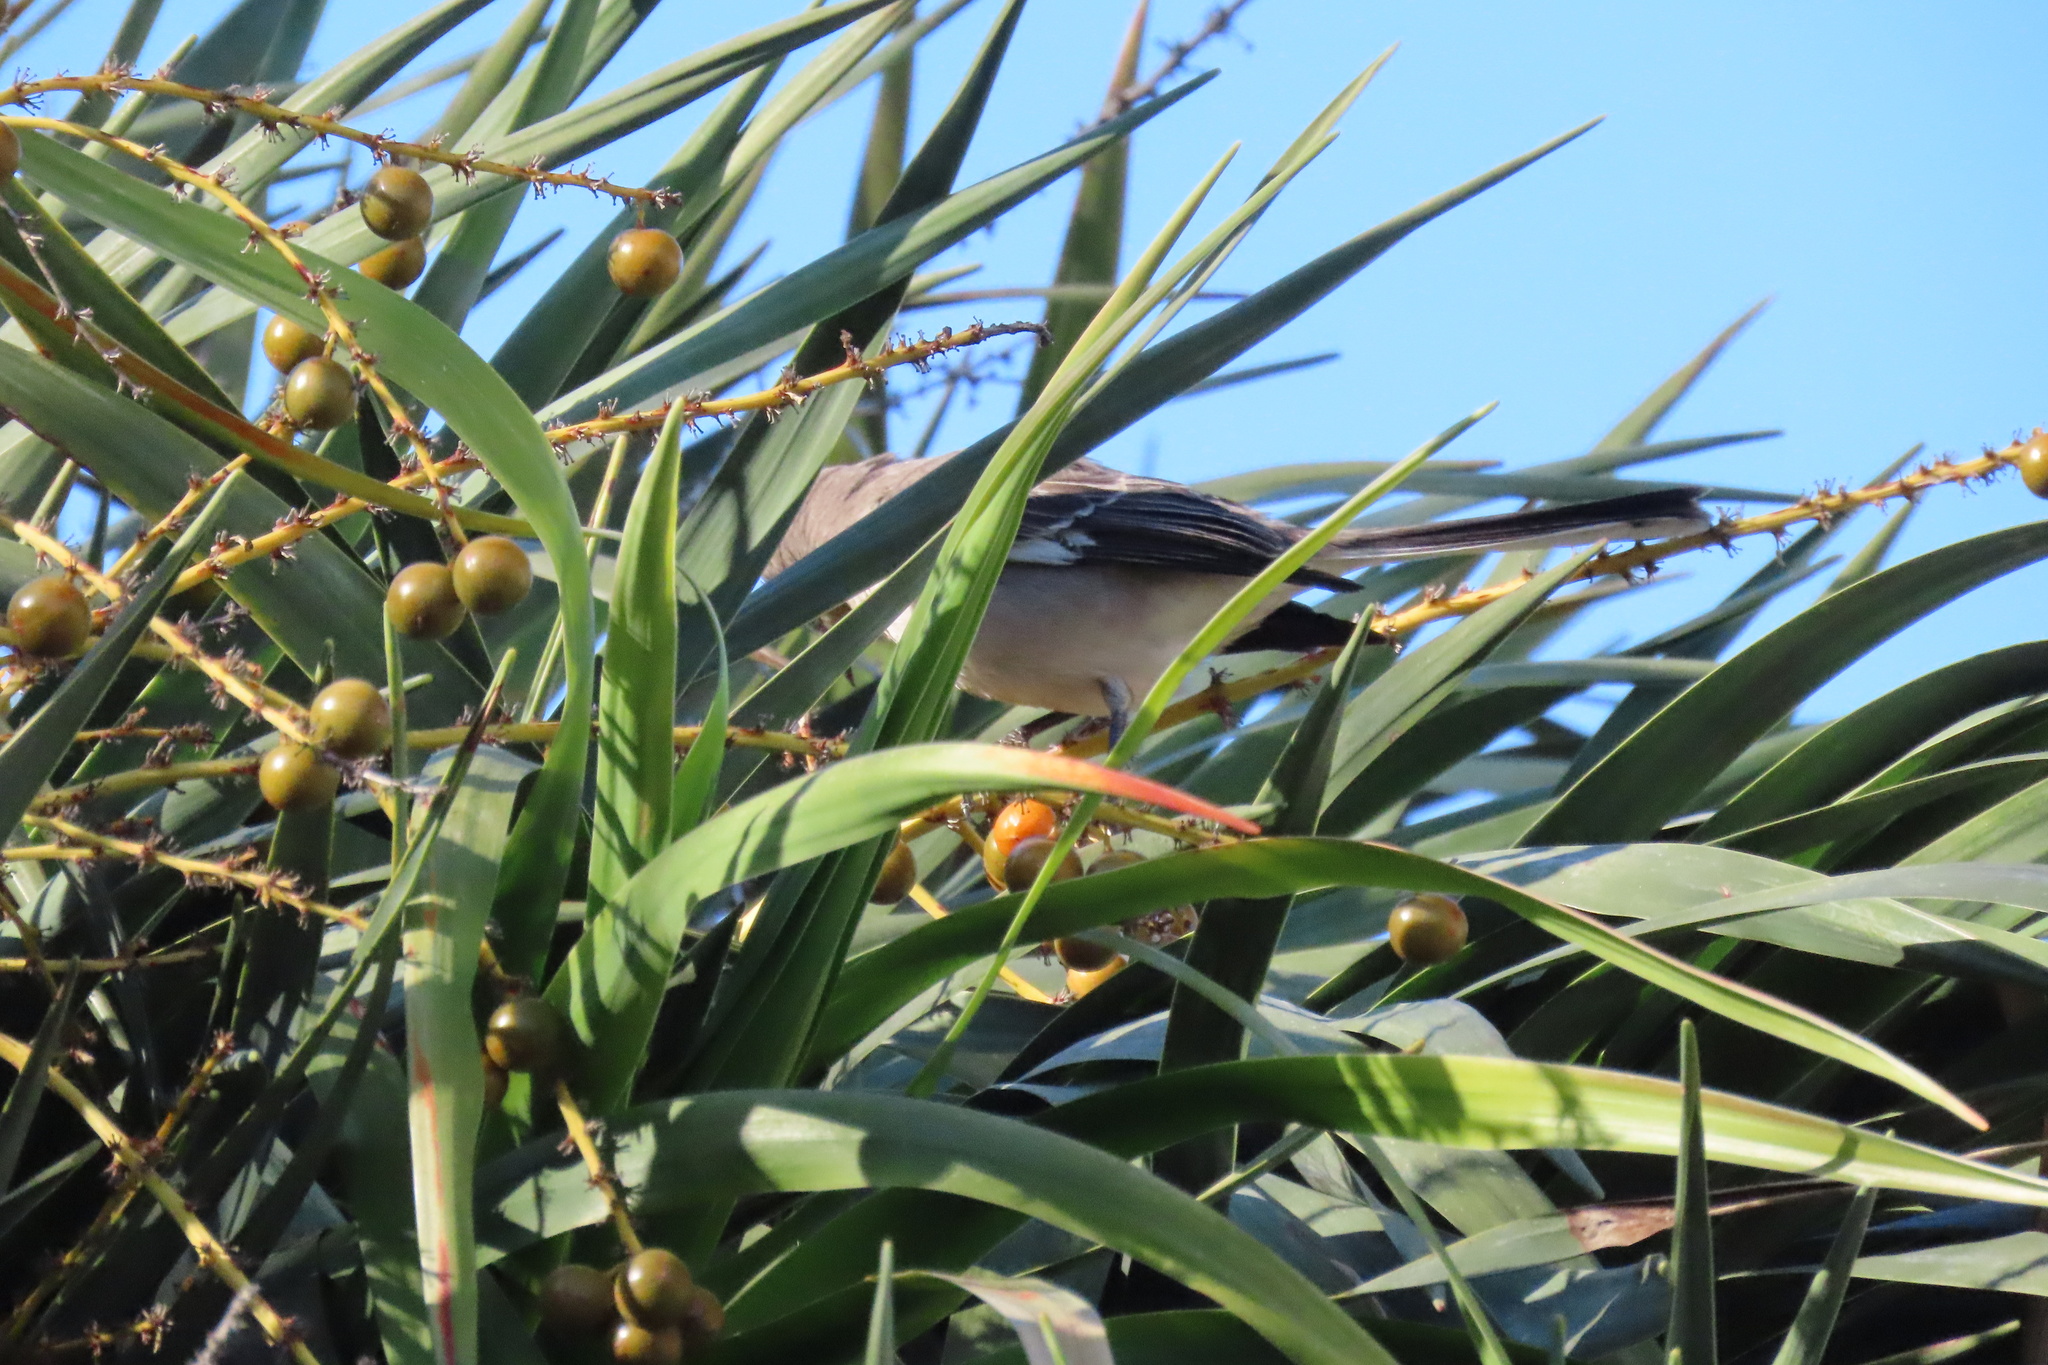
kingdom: Animalia
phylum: Chordata
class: Aves
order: Passeriformes
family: Mimidae
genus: Mimus
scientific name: Mimus polyglottos
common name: Northern mockingbird
